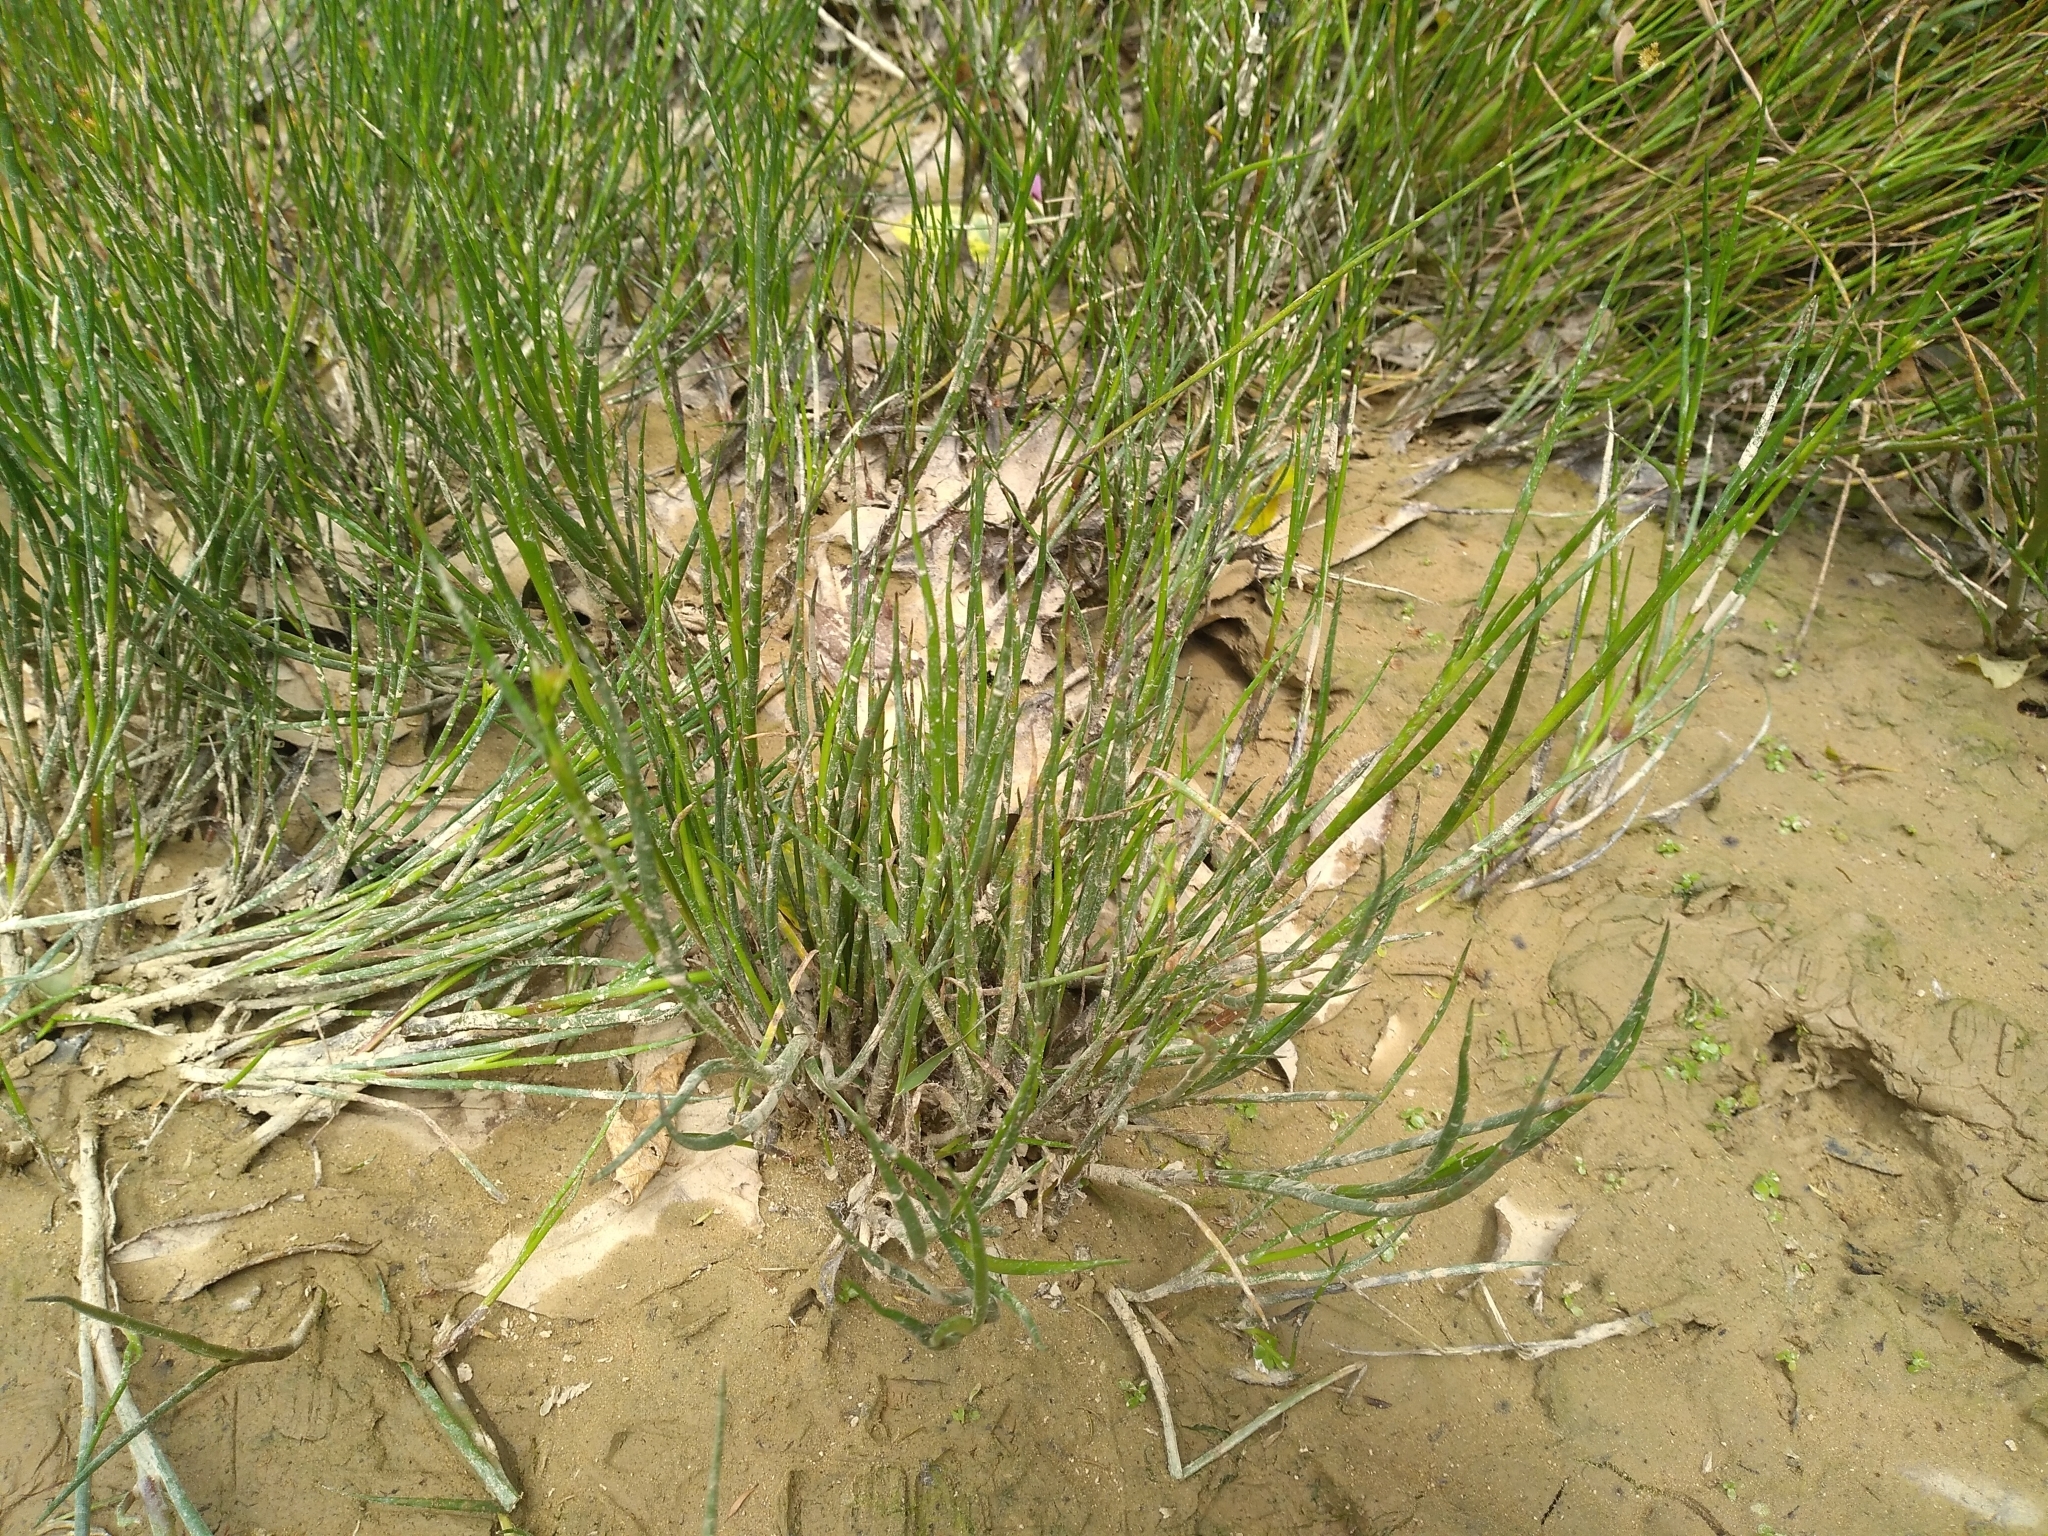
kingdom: Plantae
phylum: Tracheophyta
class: Liliopsida
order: Poales
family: Juncaceae
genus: Juncus
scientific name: Juncus articulatus
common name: Jointed rush
